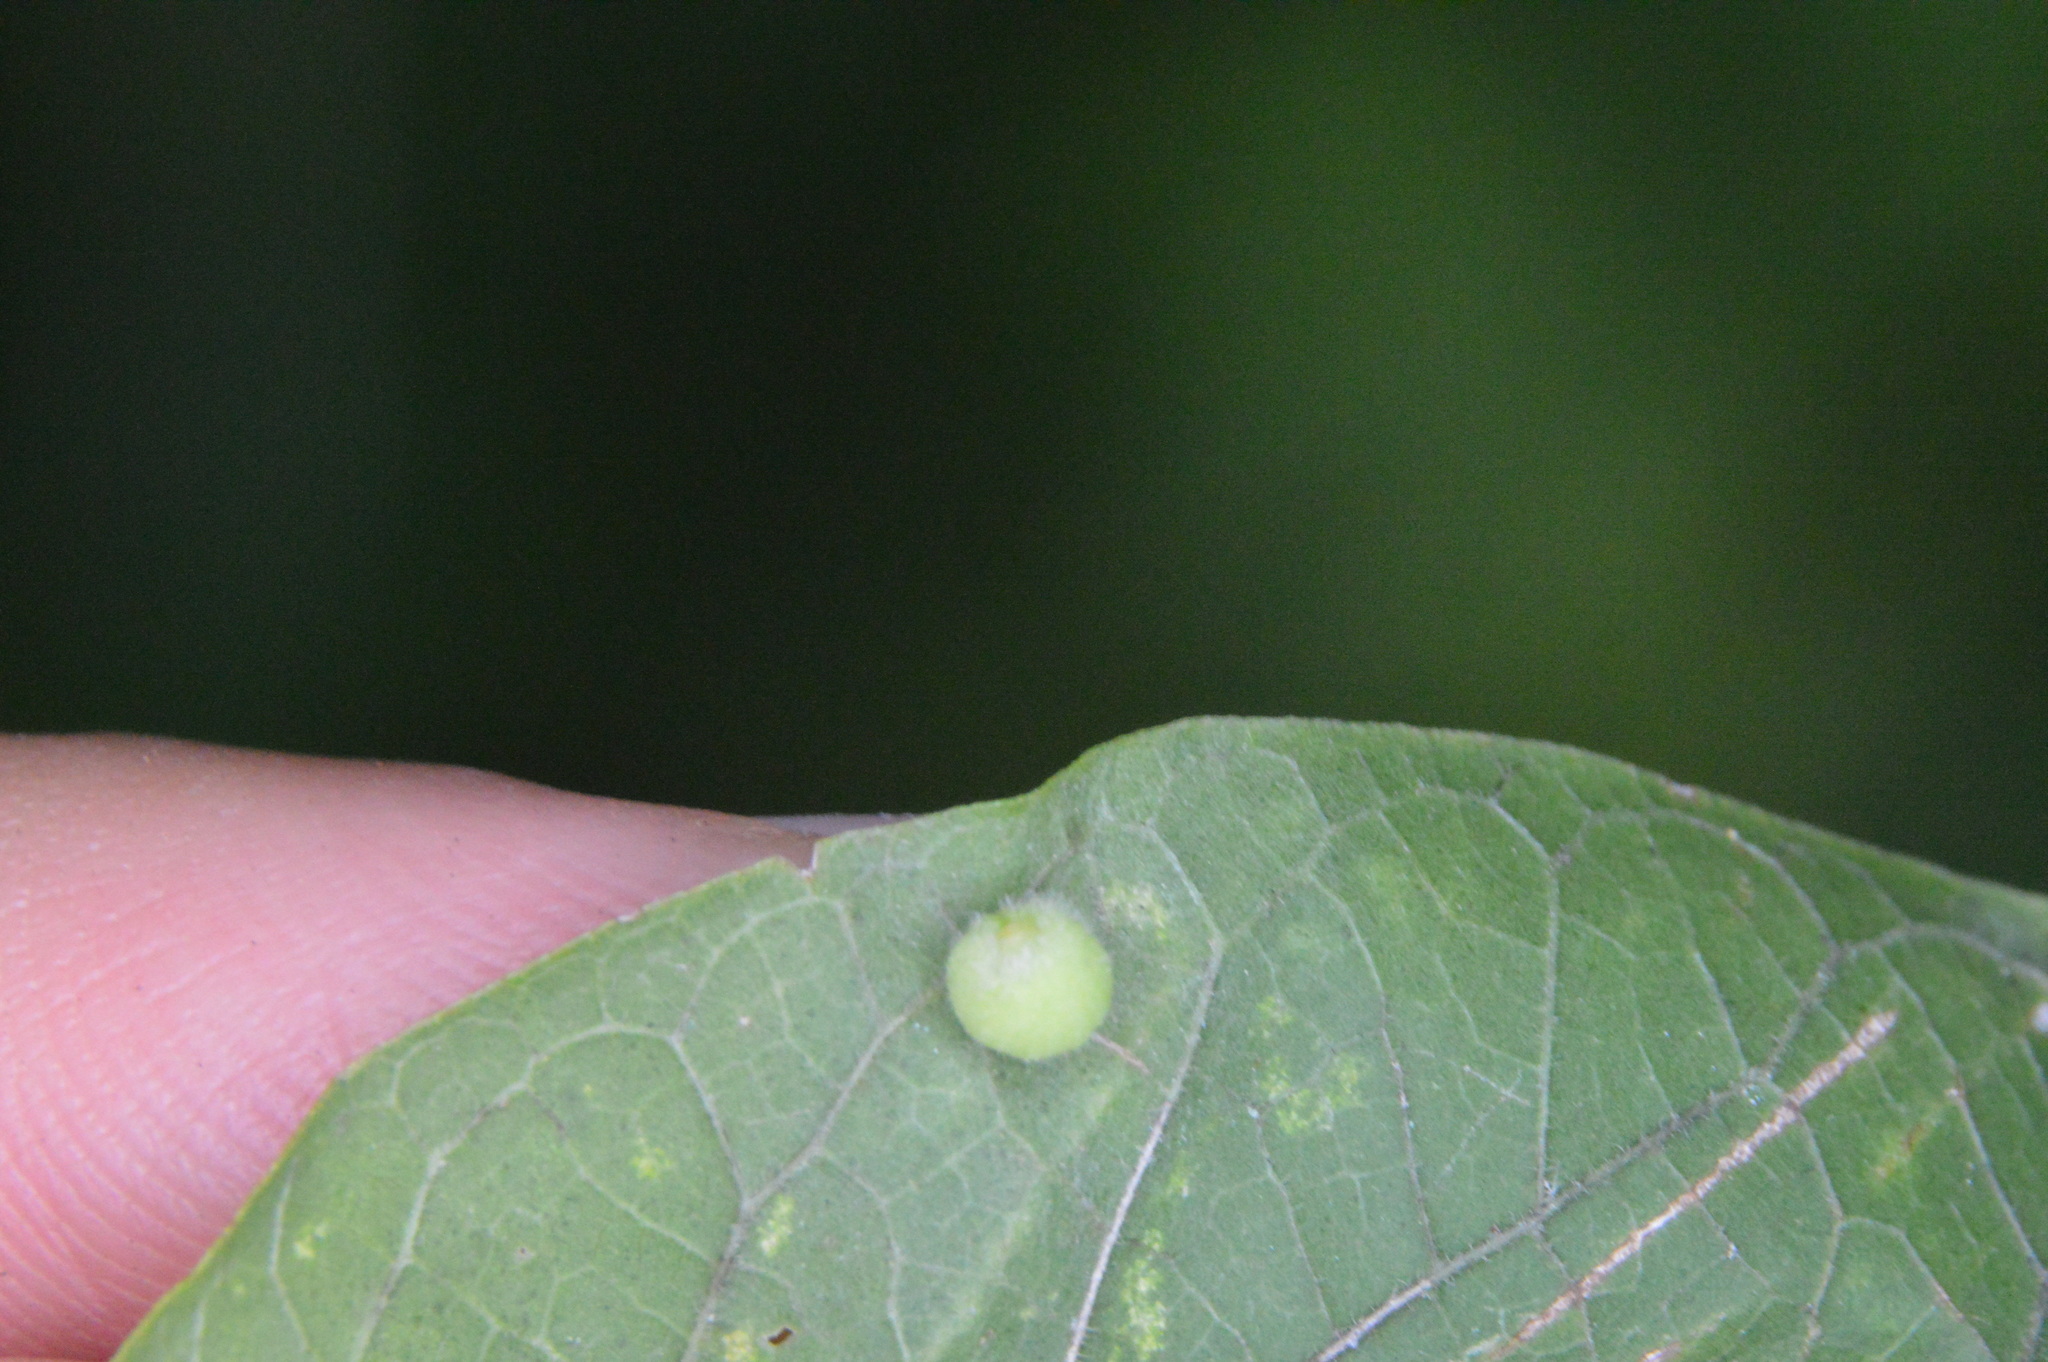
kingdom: Animalia
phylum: Arthropoda
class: Insecta
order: Diptera
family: Cecidomyiidae
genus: Celticecis
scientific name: Celticecis globosa
